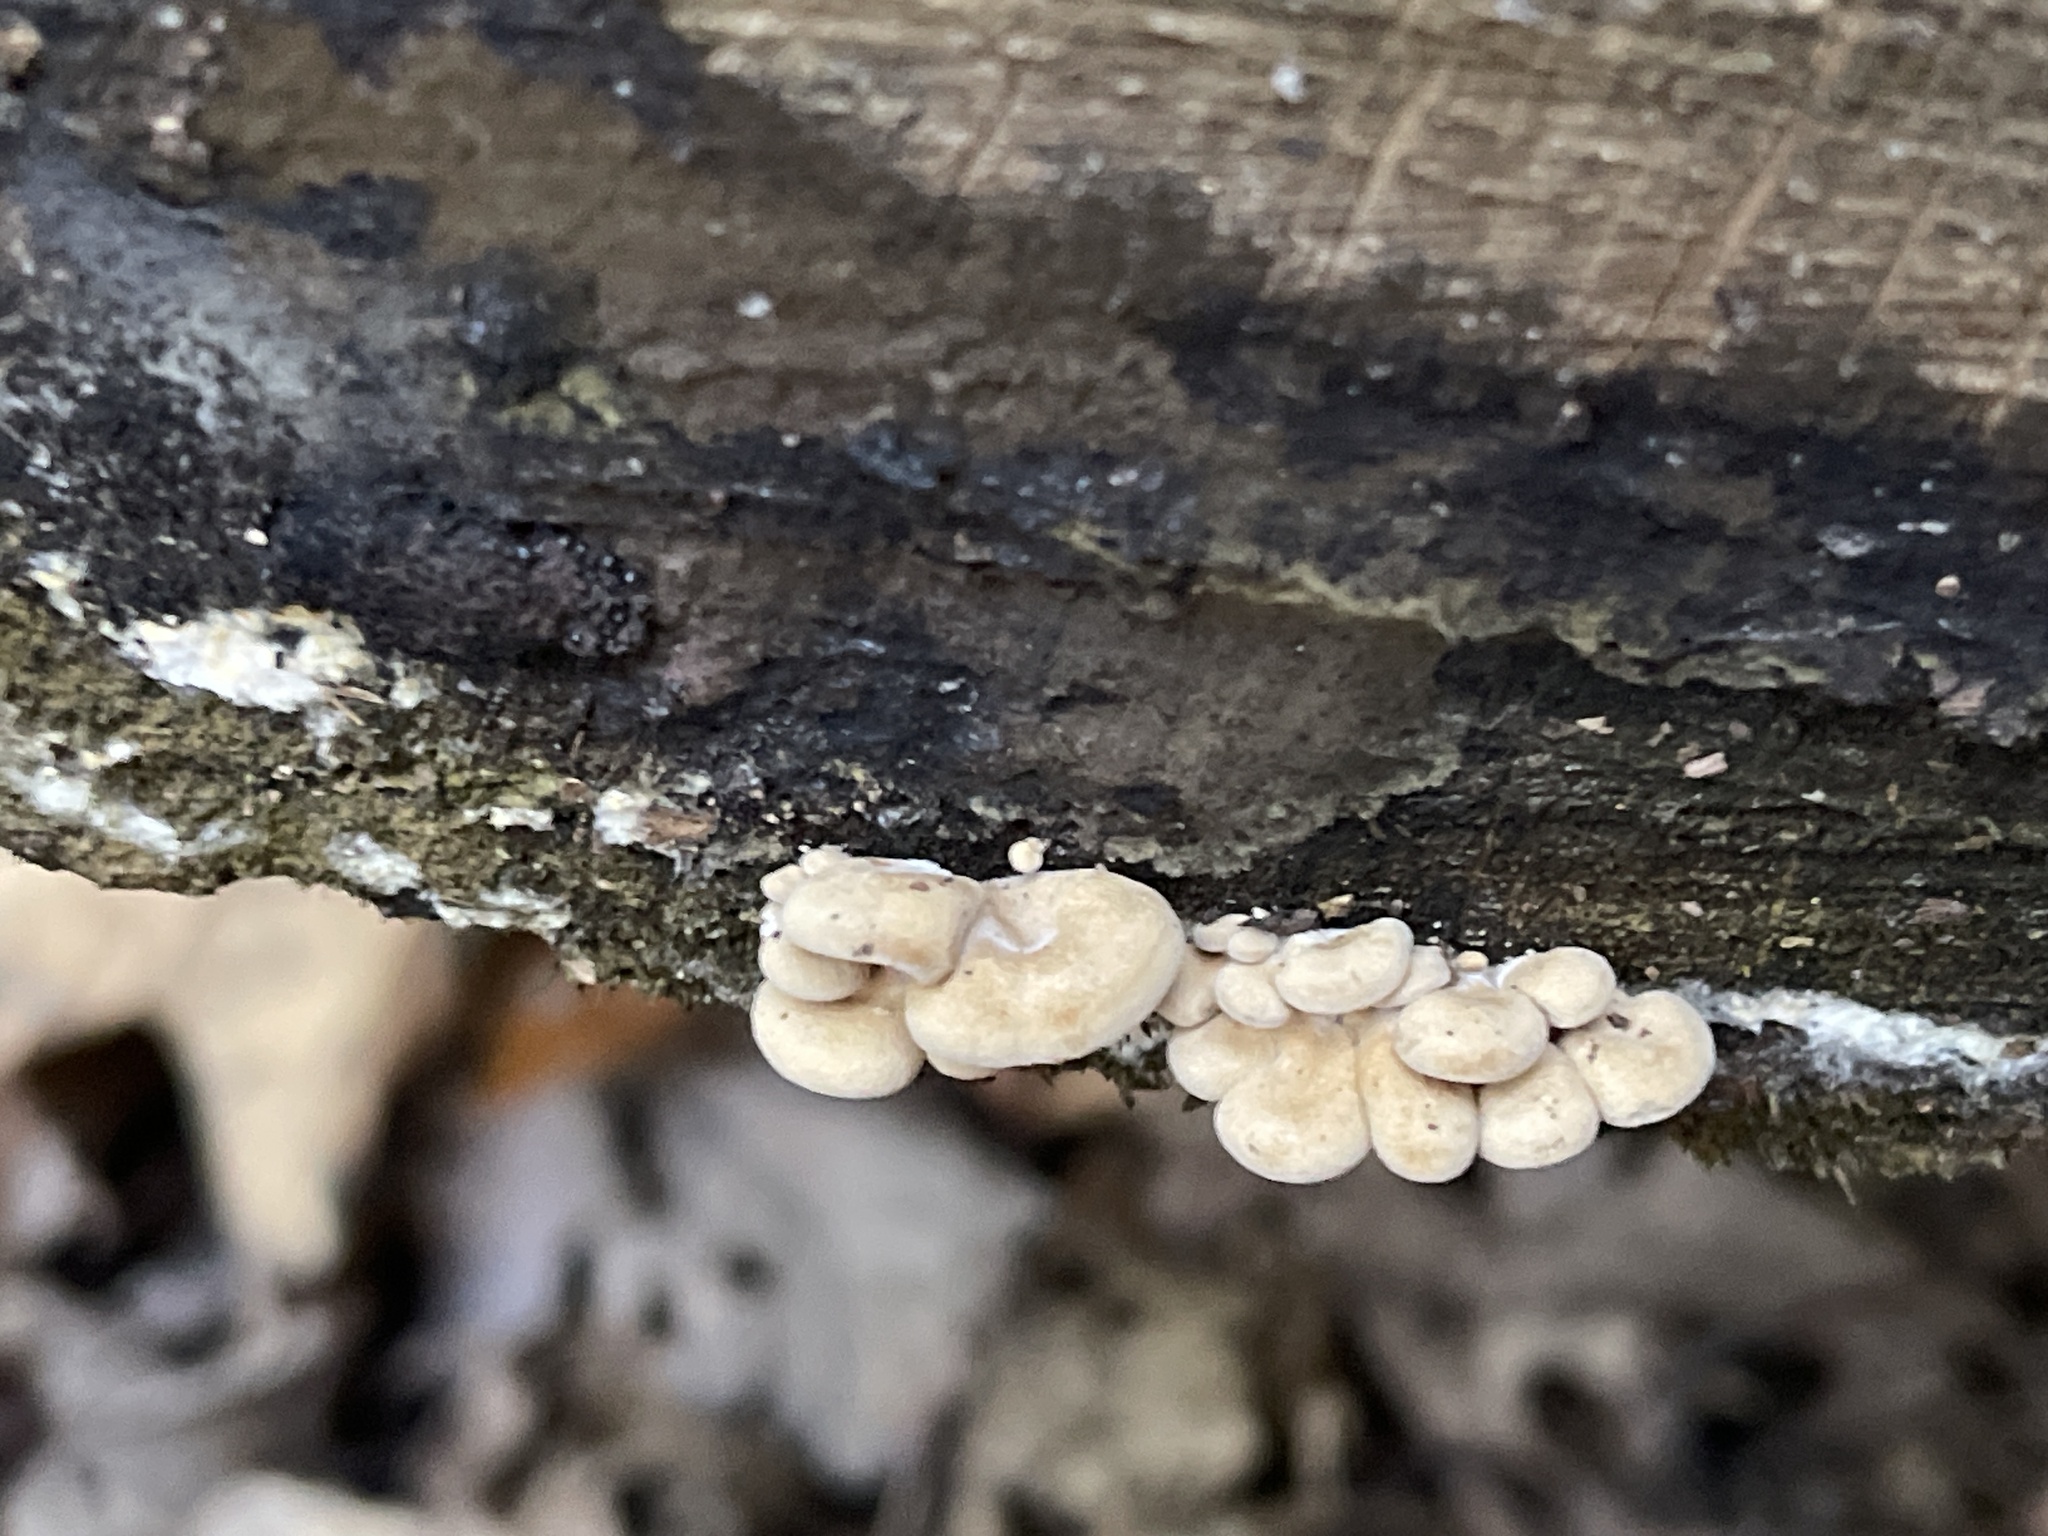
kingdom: Fungi
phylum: Basidiomycota
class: Agaricomycetes
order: Agaricales
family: Mycenaceae
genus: Panellus
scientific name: Panellus stipticus
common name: Bitter oysterling
